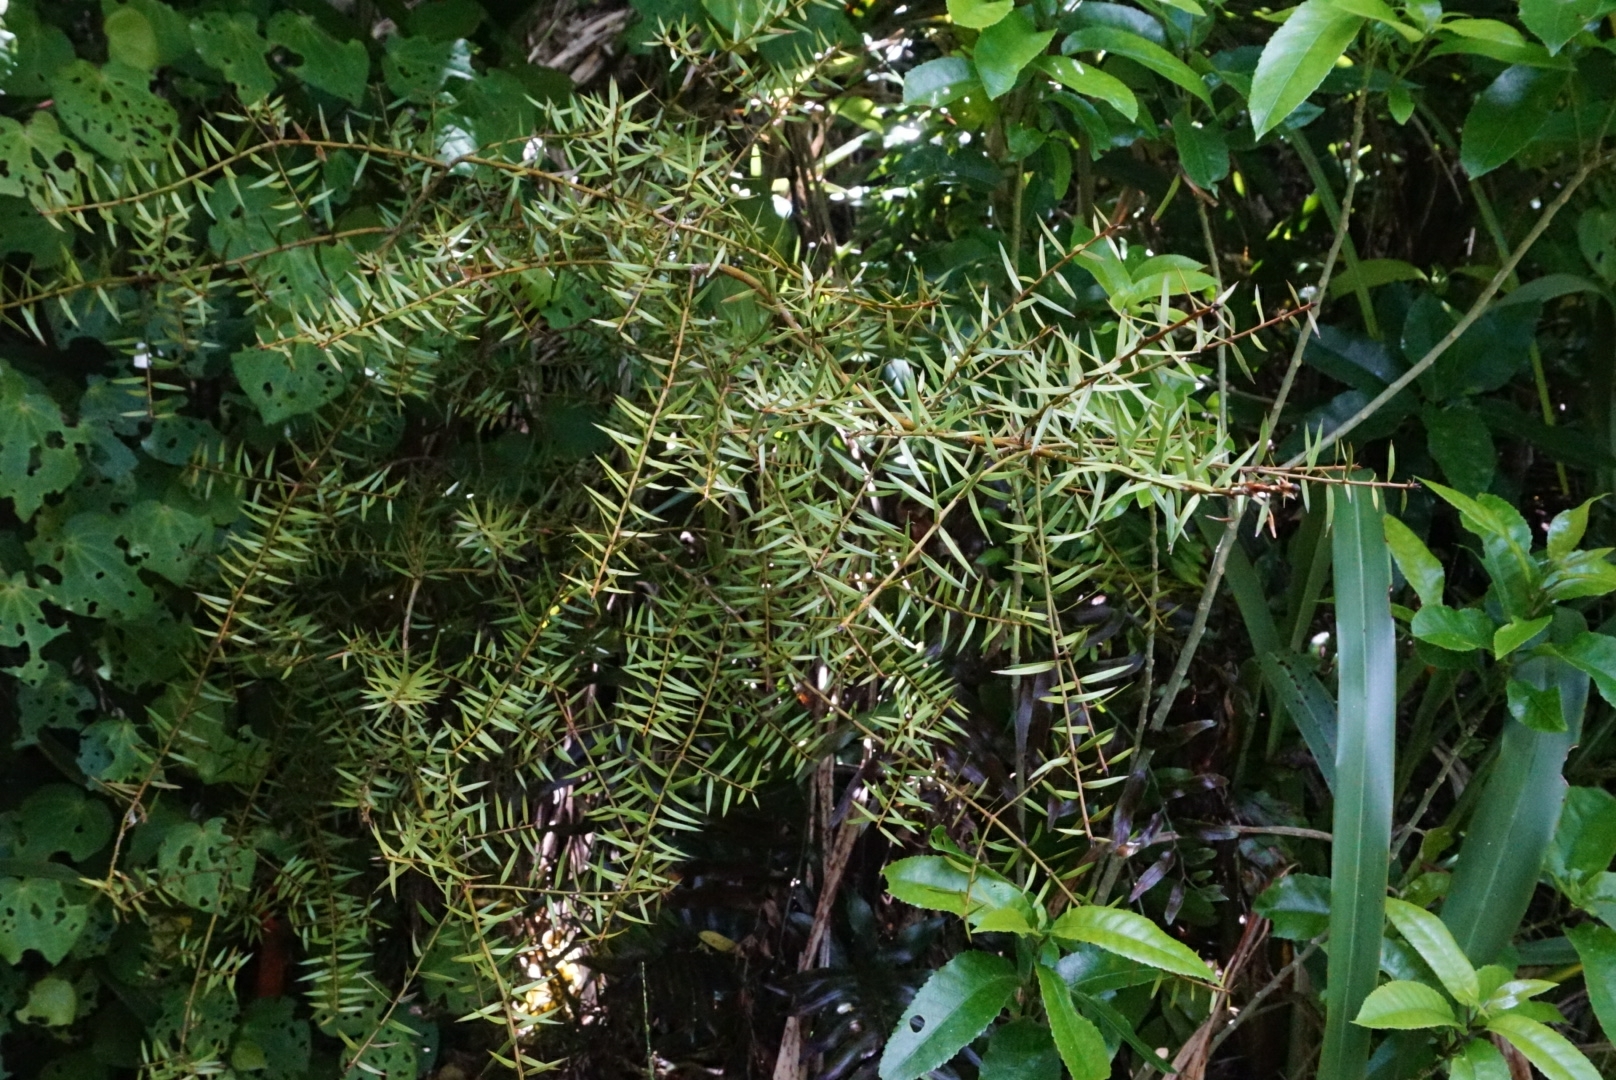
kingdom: Plantae
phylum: Tracheophyta
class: Pinopsida
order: Pinales
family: Podocarpaceae
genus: Podocarpus
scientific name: Podocarpus totara
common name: Totara
